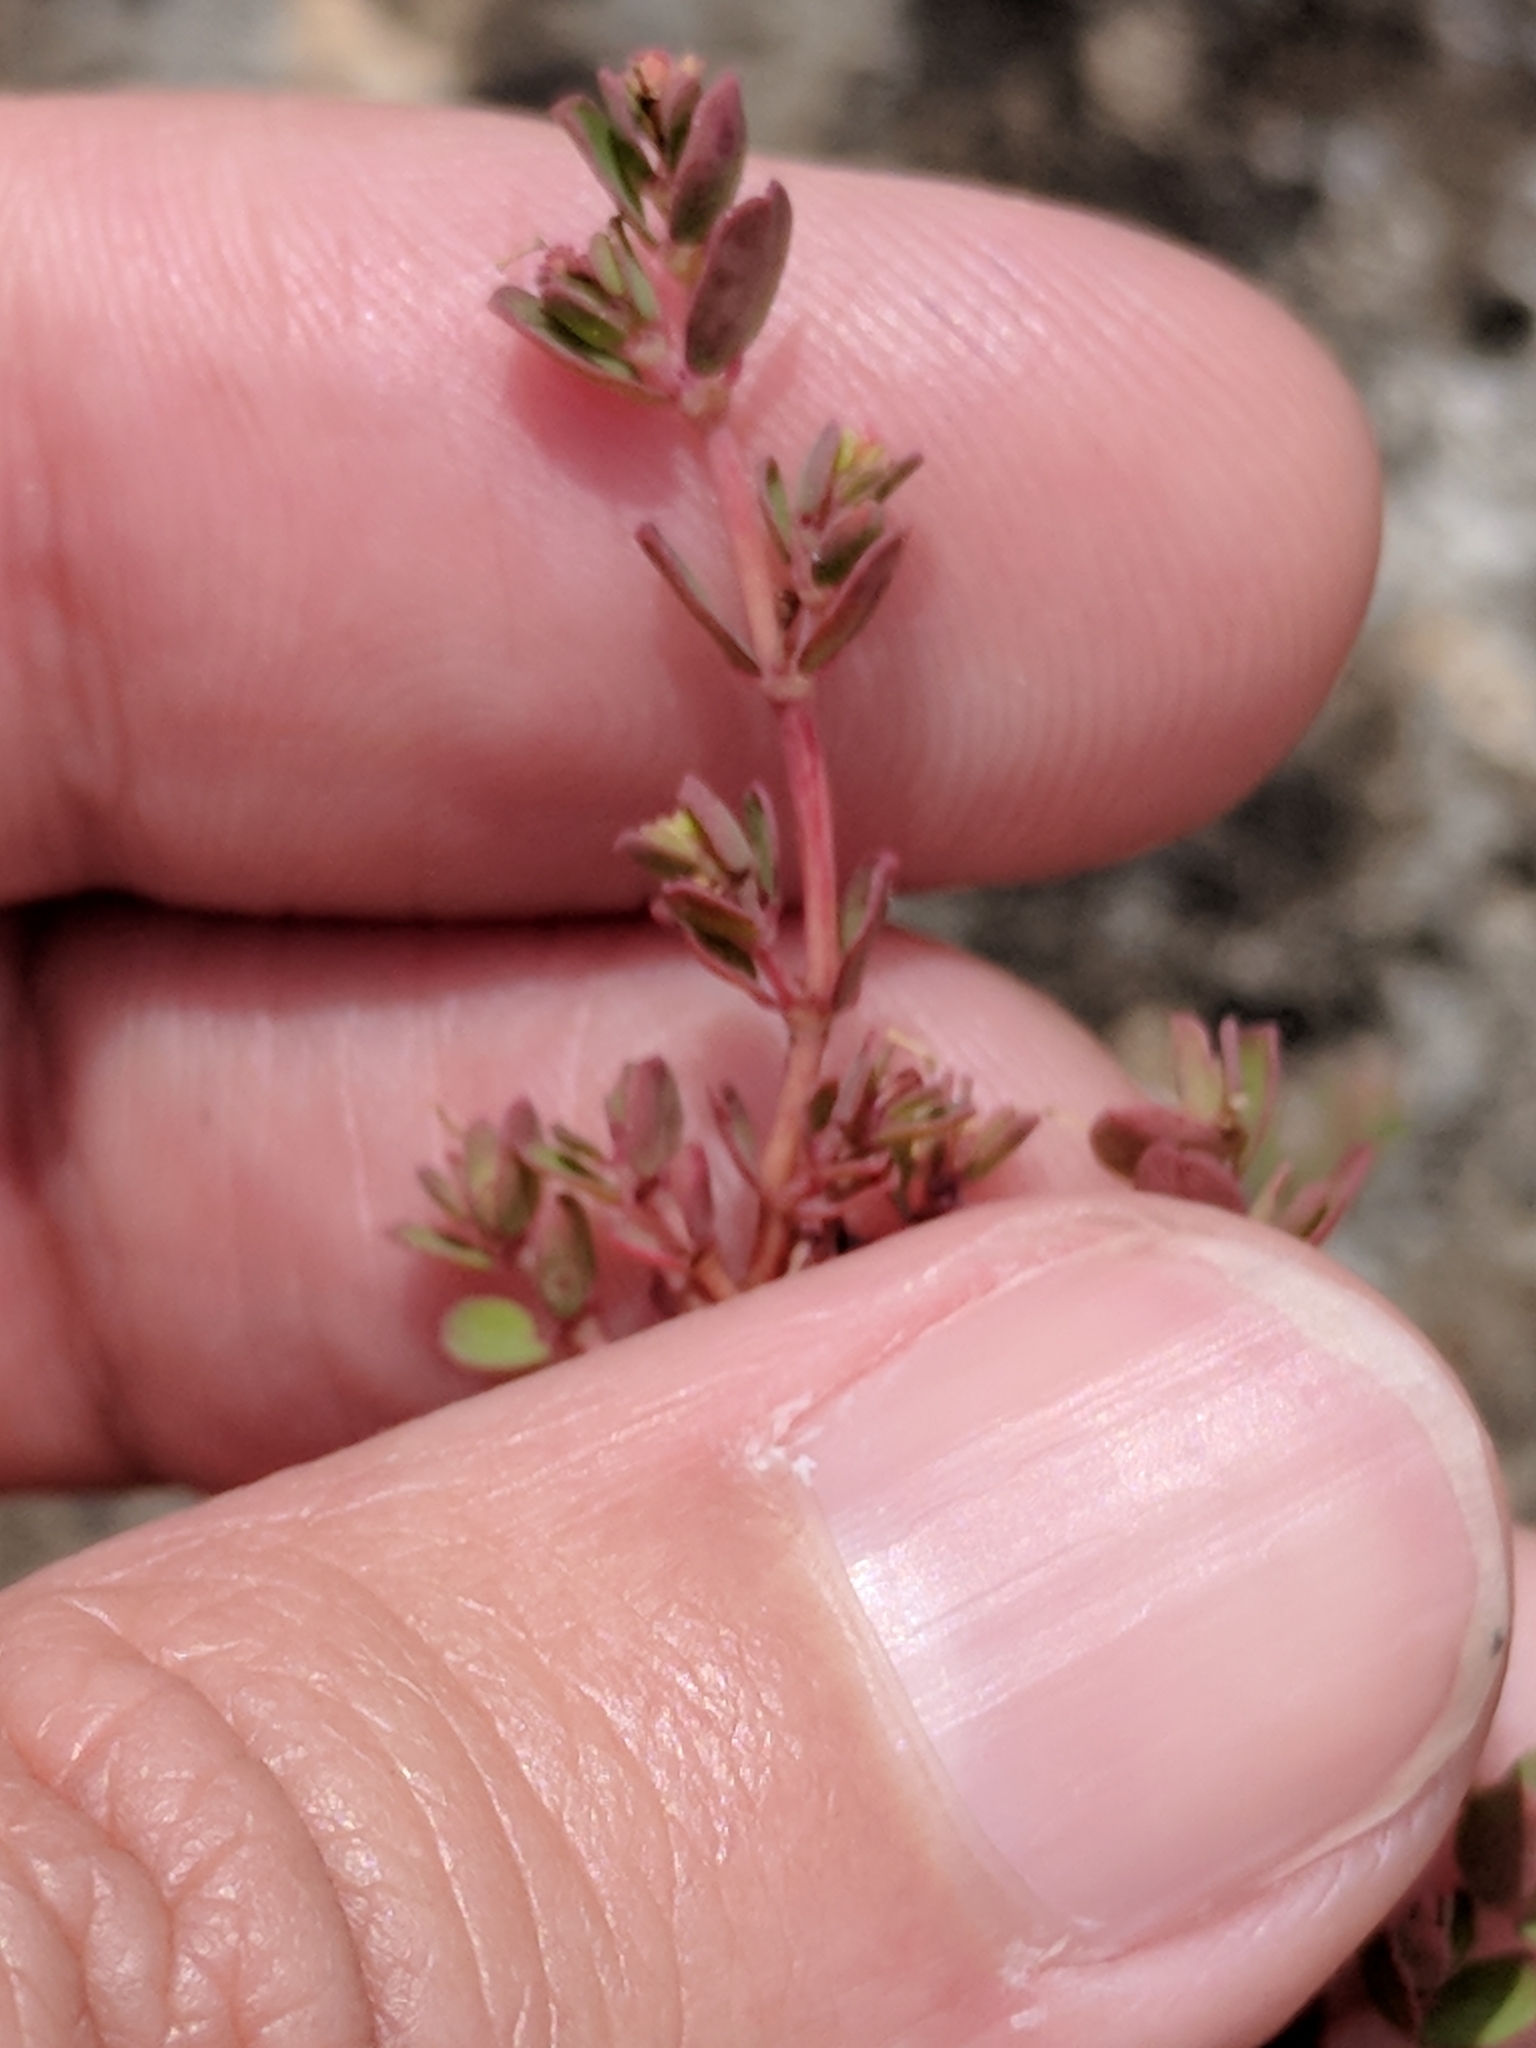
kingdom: Plantae
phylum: Tracheophyta
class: Magnoliopsida
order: Malpighiales
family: Euphorbiaceae
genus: Euphorbia
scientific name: Euphorbia serpens
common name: Matted sandmat
